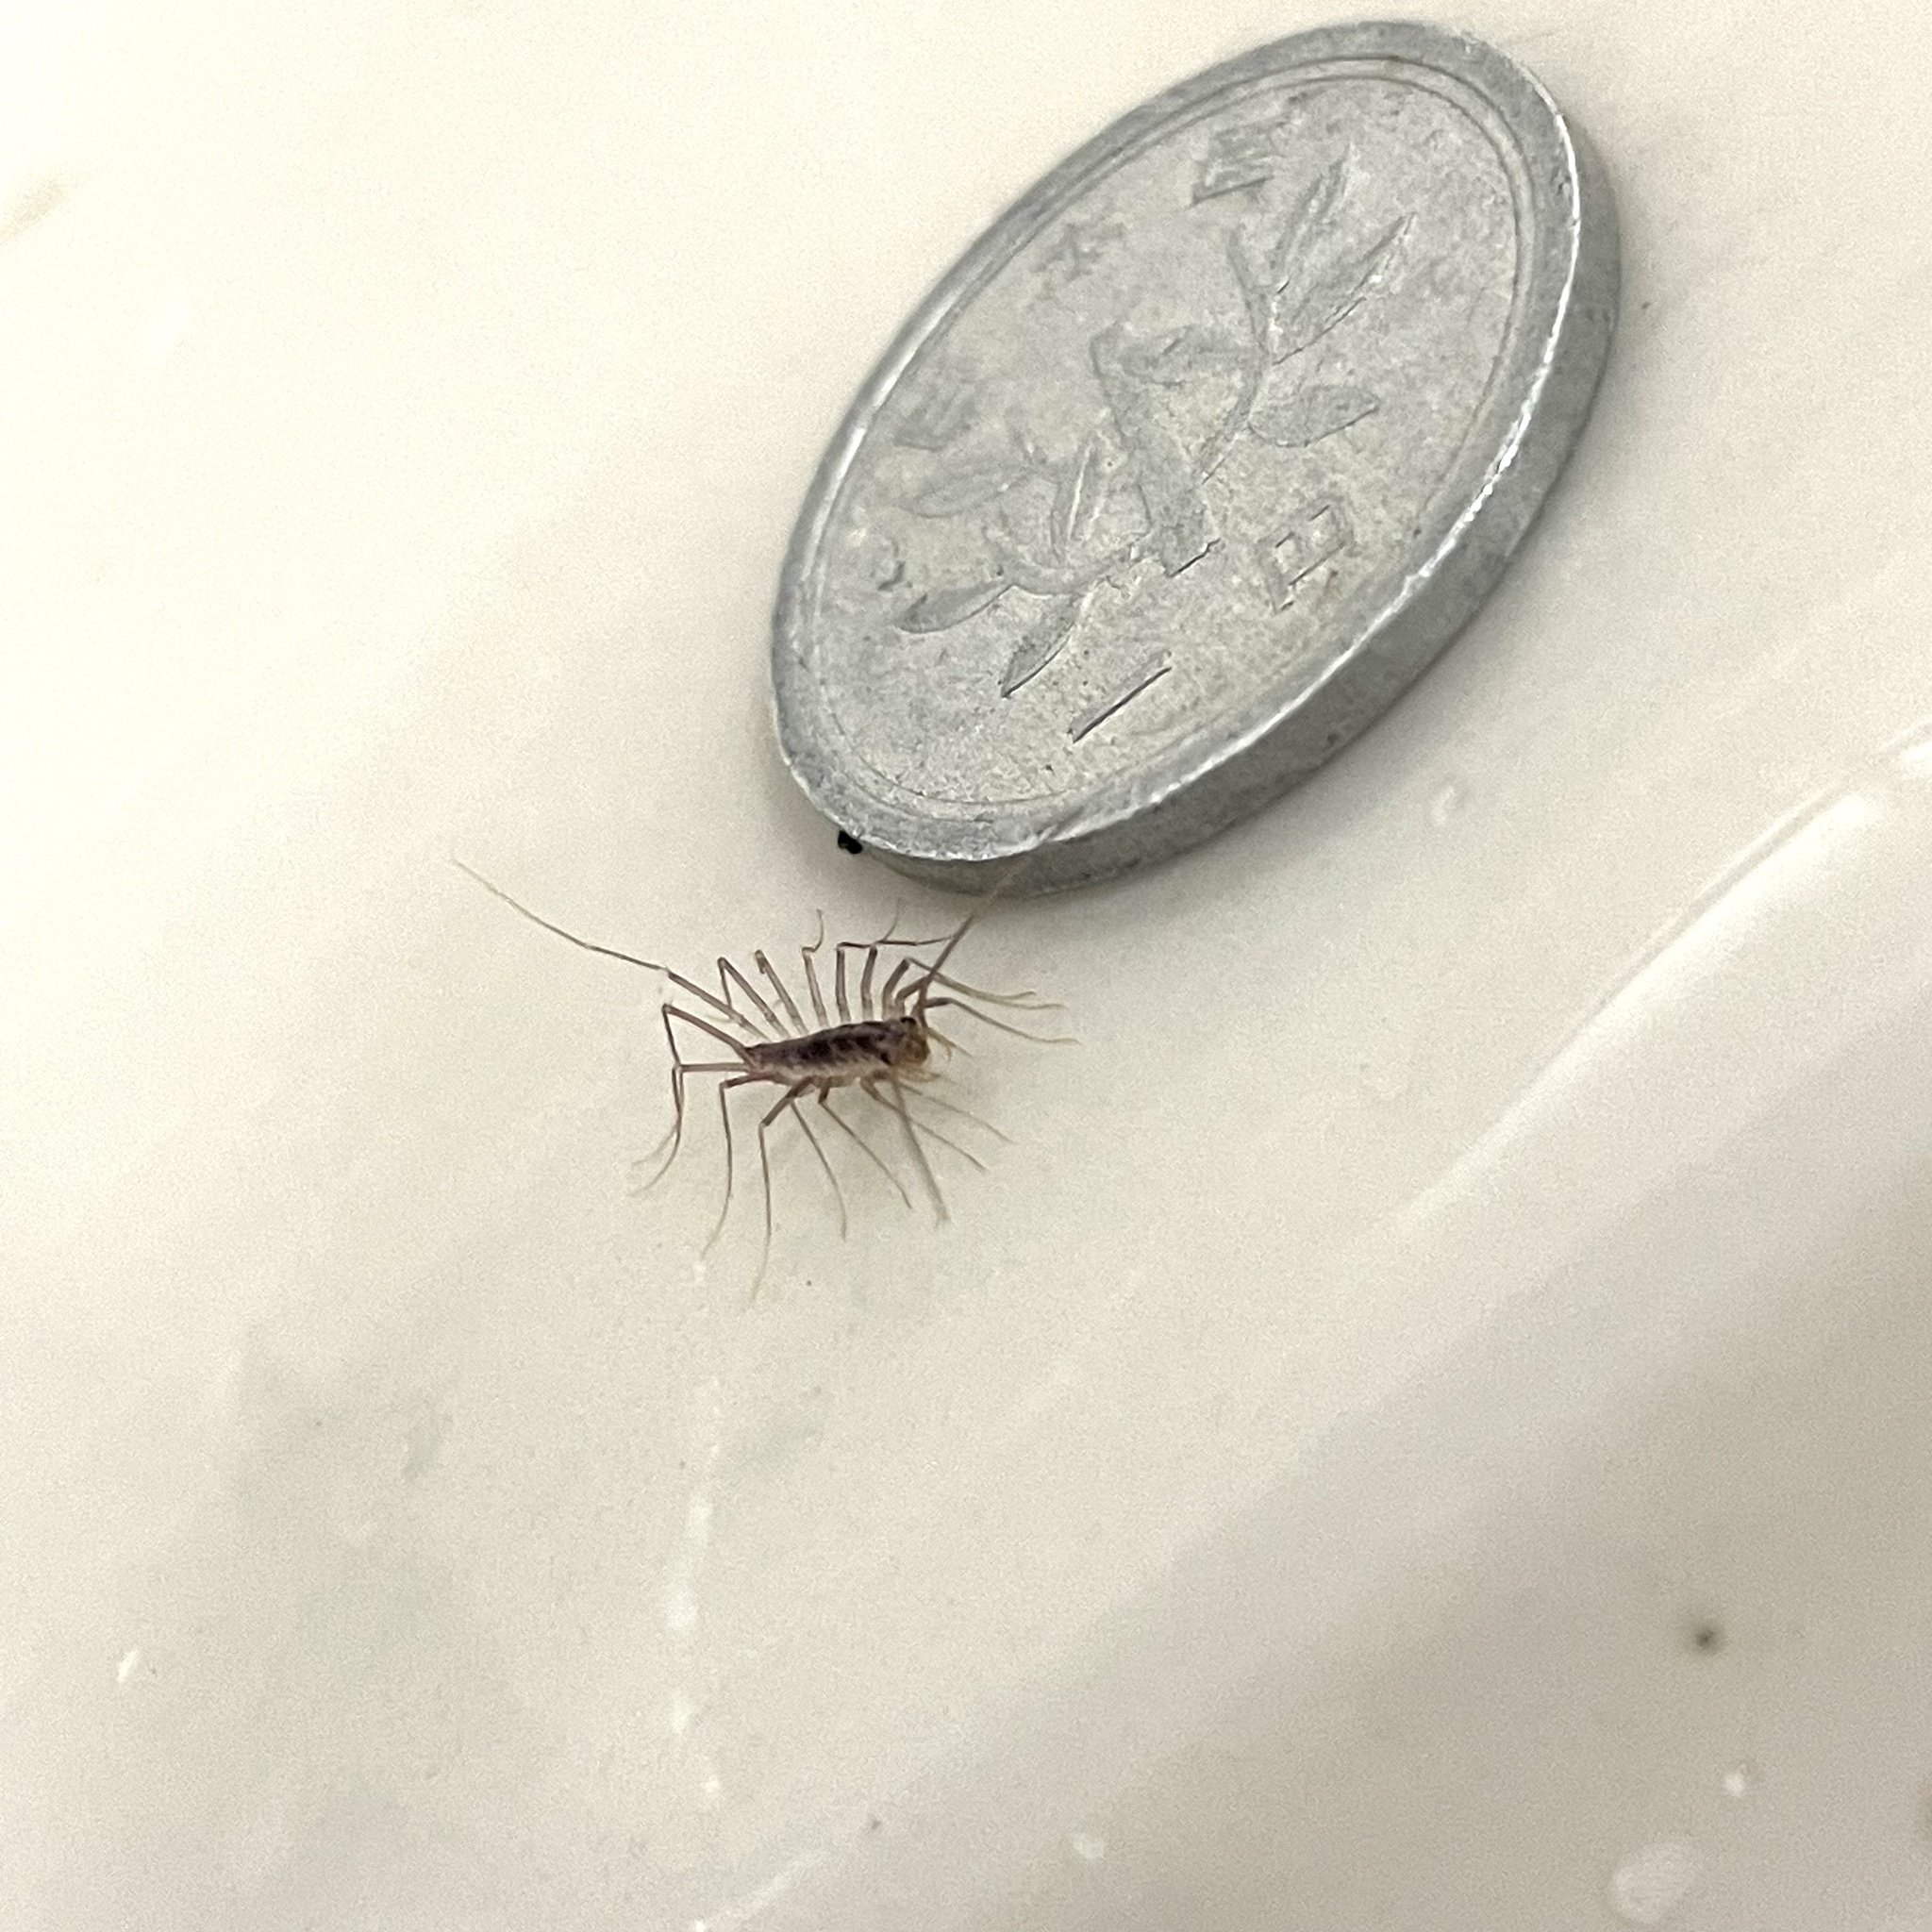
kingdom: Animalia
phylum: Arthropoda
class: Chilopoda
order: Scutigeromorpha
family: Scutigeridae
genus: Thereuopoda
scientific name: Thereuopoda clunifera
